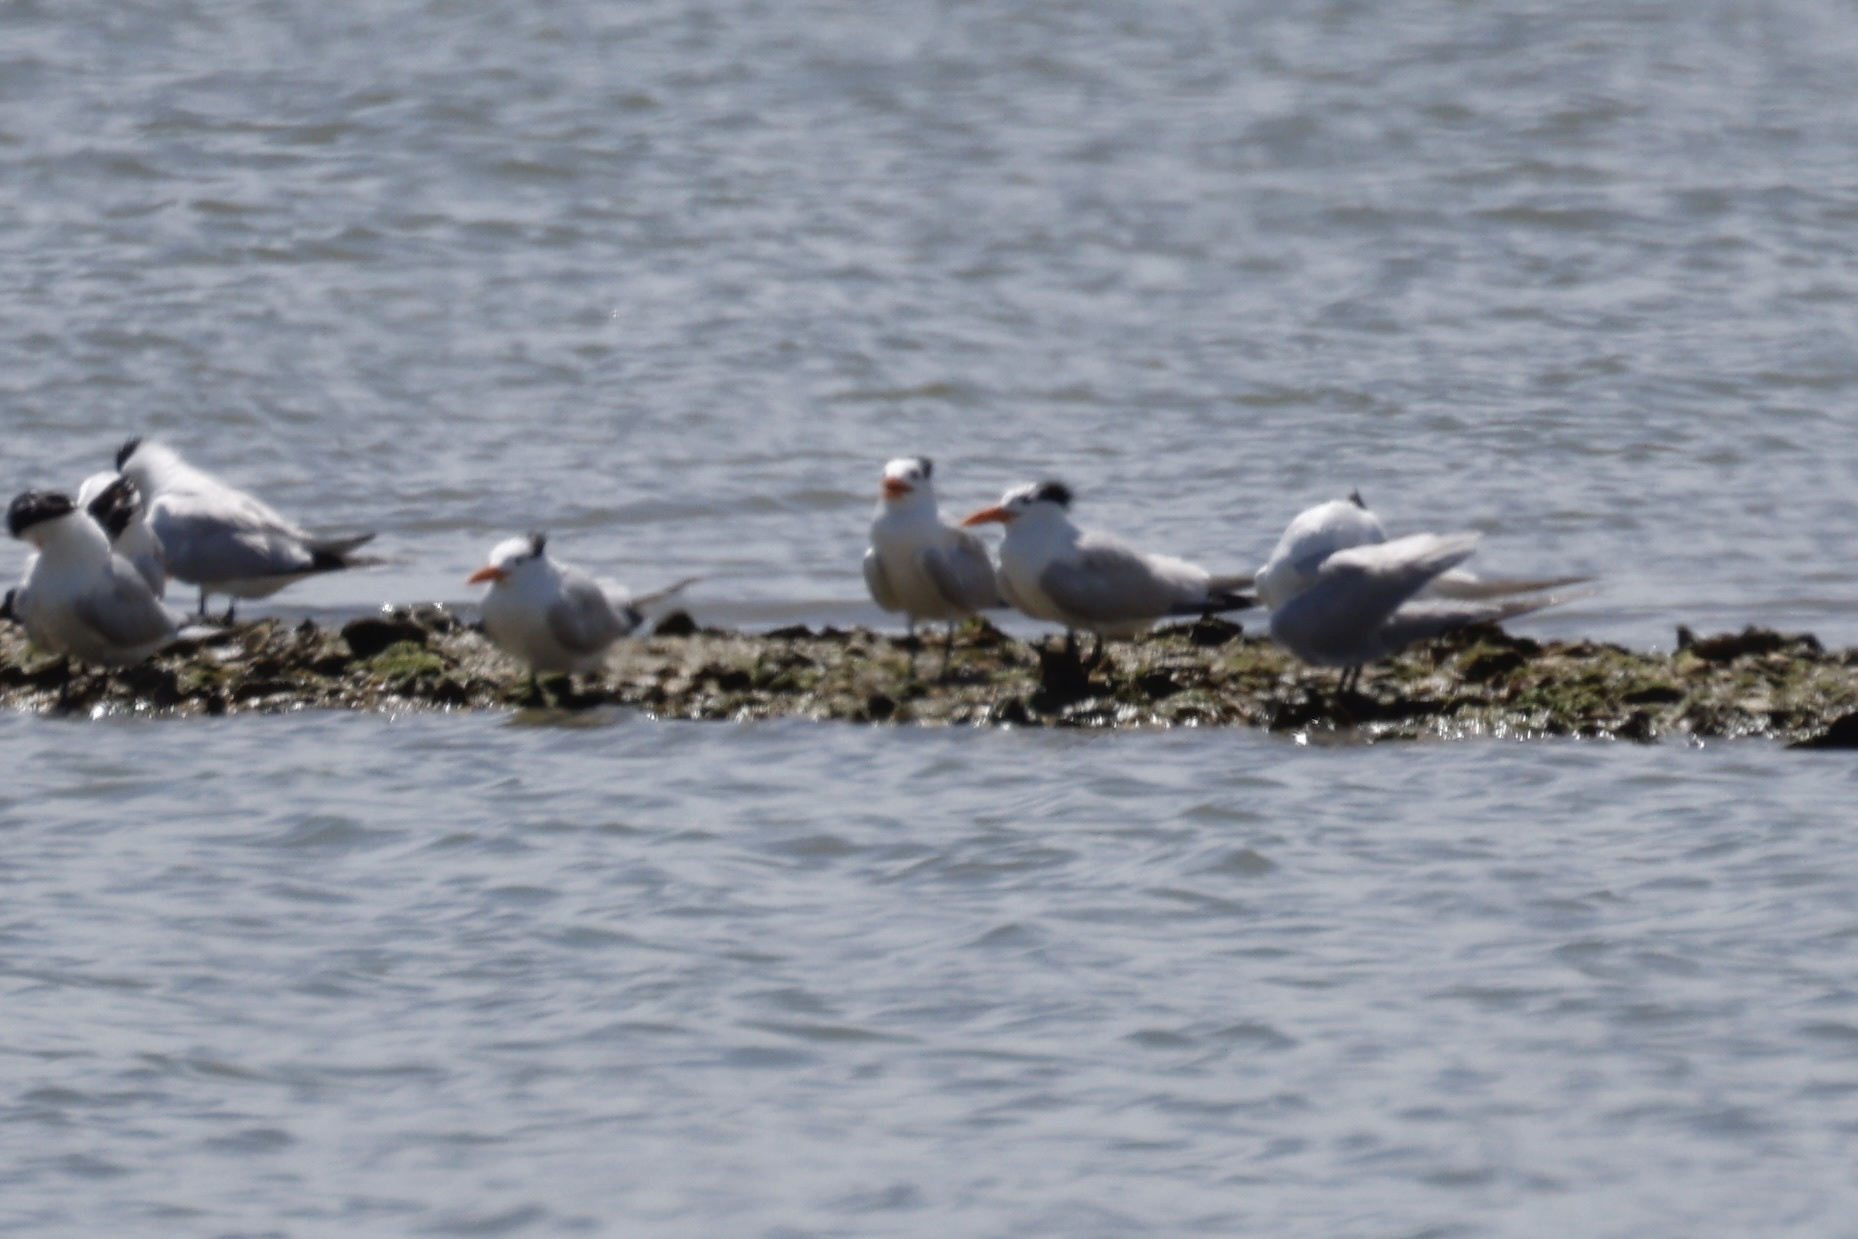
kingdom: Animalia
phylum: Chordata
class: Aves
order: Charadriiformes
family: Laridae
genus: Thalasseus
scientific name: Thalasseus maximus
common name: Royal tern
